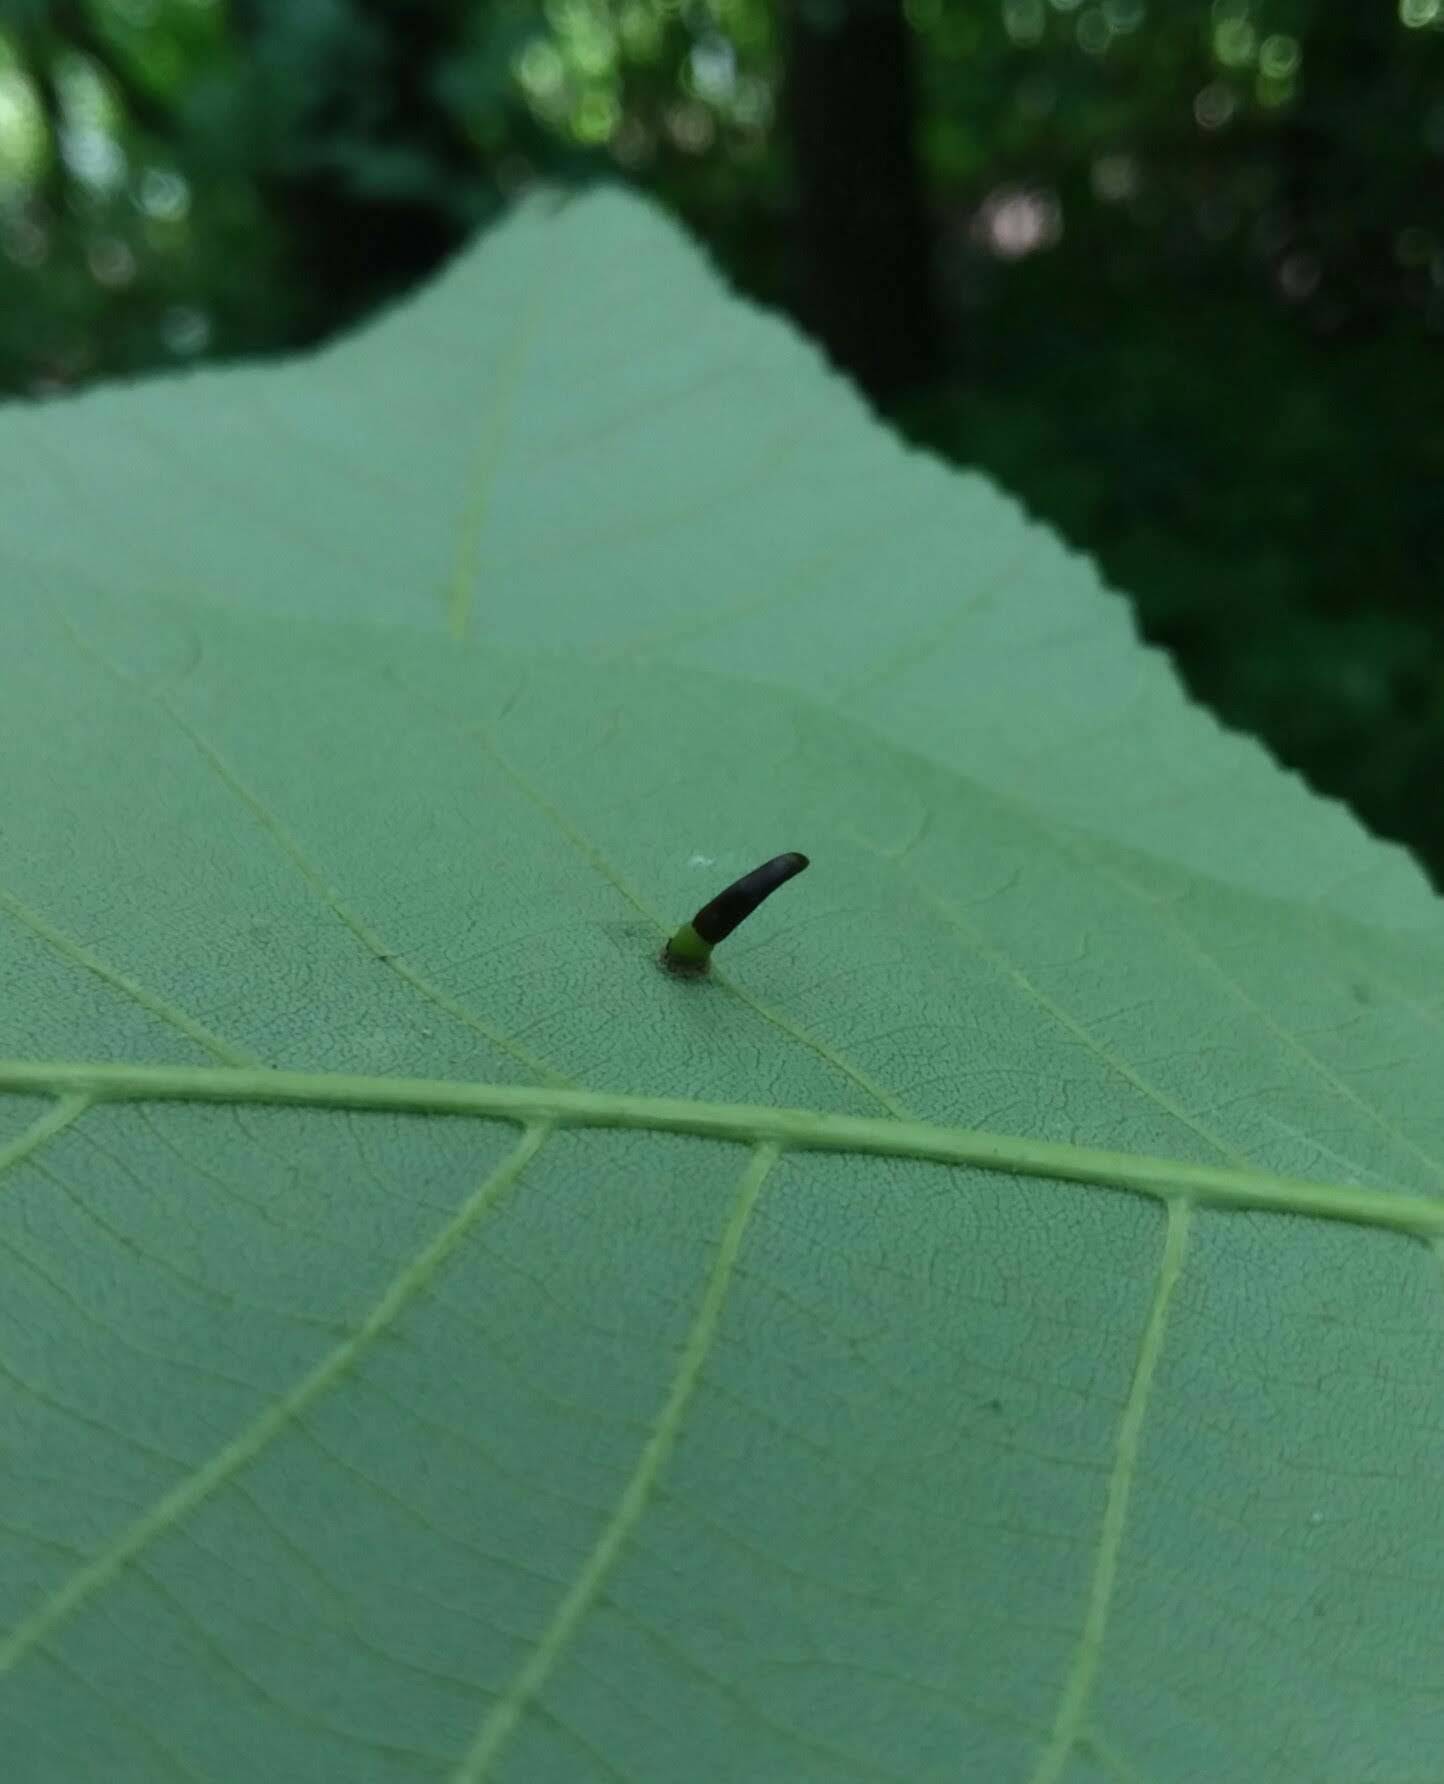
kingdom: Animalia
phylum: Arthropoda
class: Insecta
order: Diptera
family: Cecidomyiidae
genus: Caryomyia
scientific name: Caryomyia subulata
